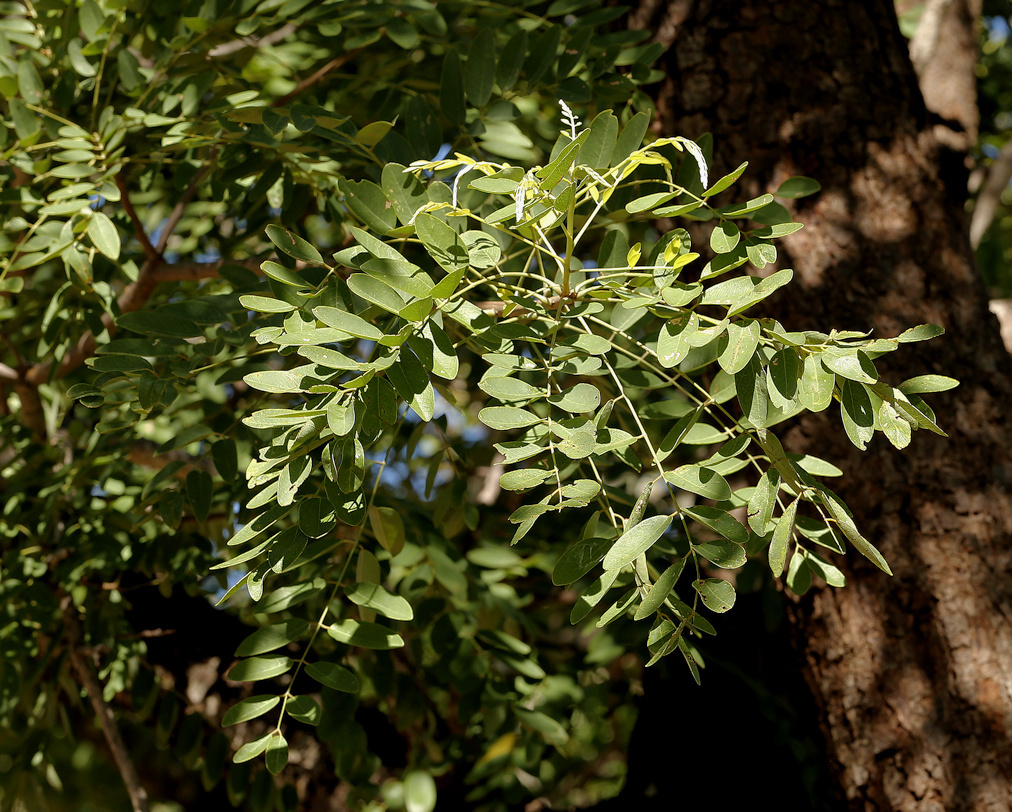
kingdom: Plantae
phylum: Tracheophyta
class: Magnoliopsida
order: Fabales
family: Fabaceae
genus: Cassia
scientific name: Cassia abbreviata
